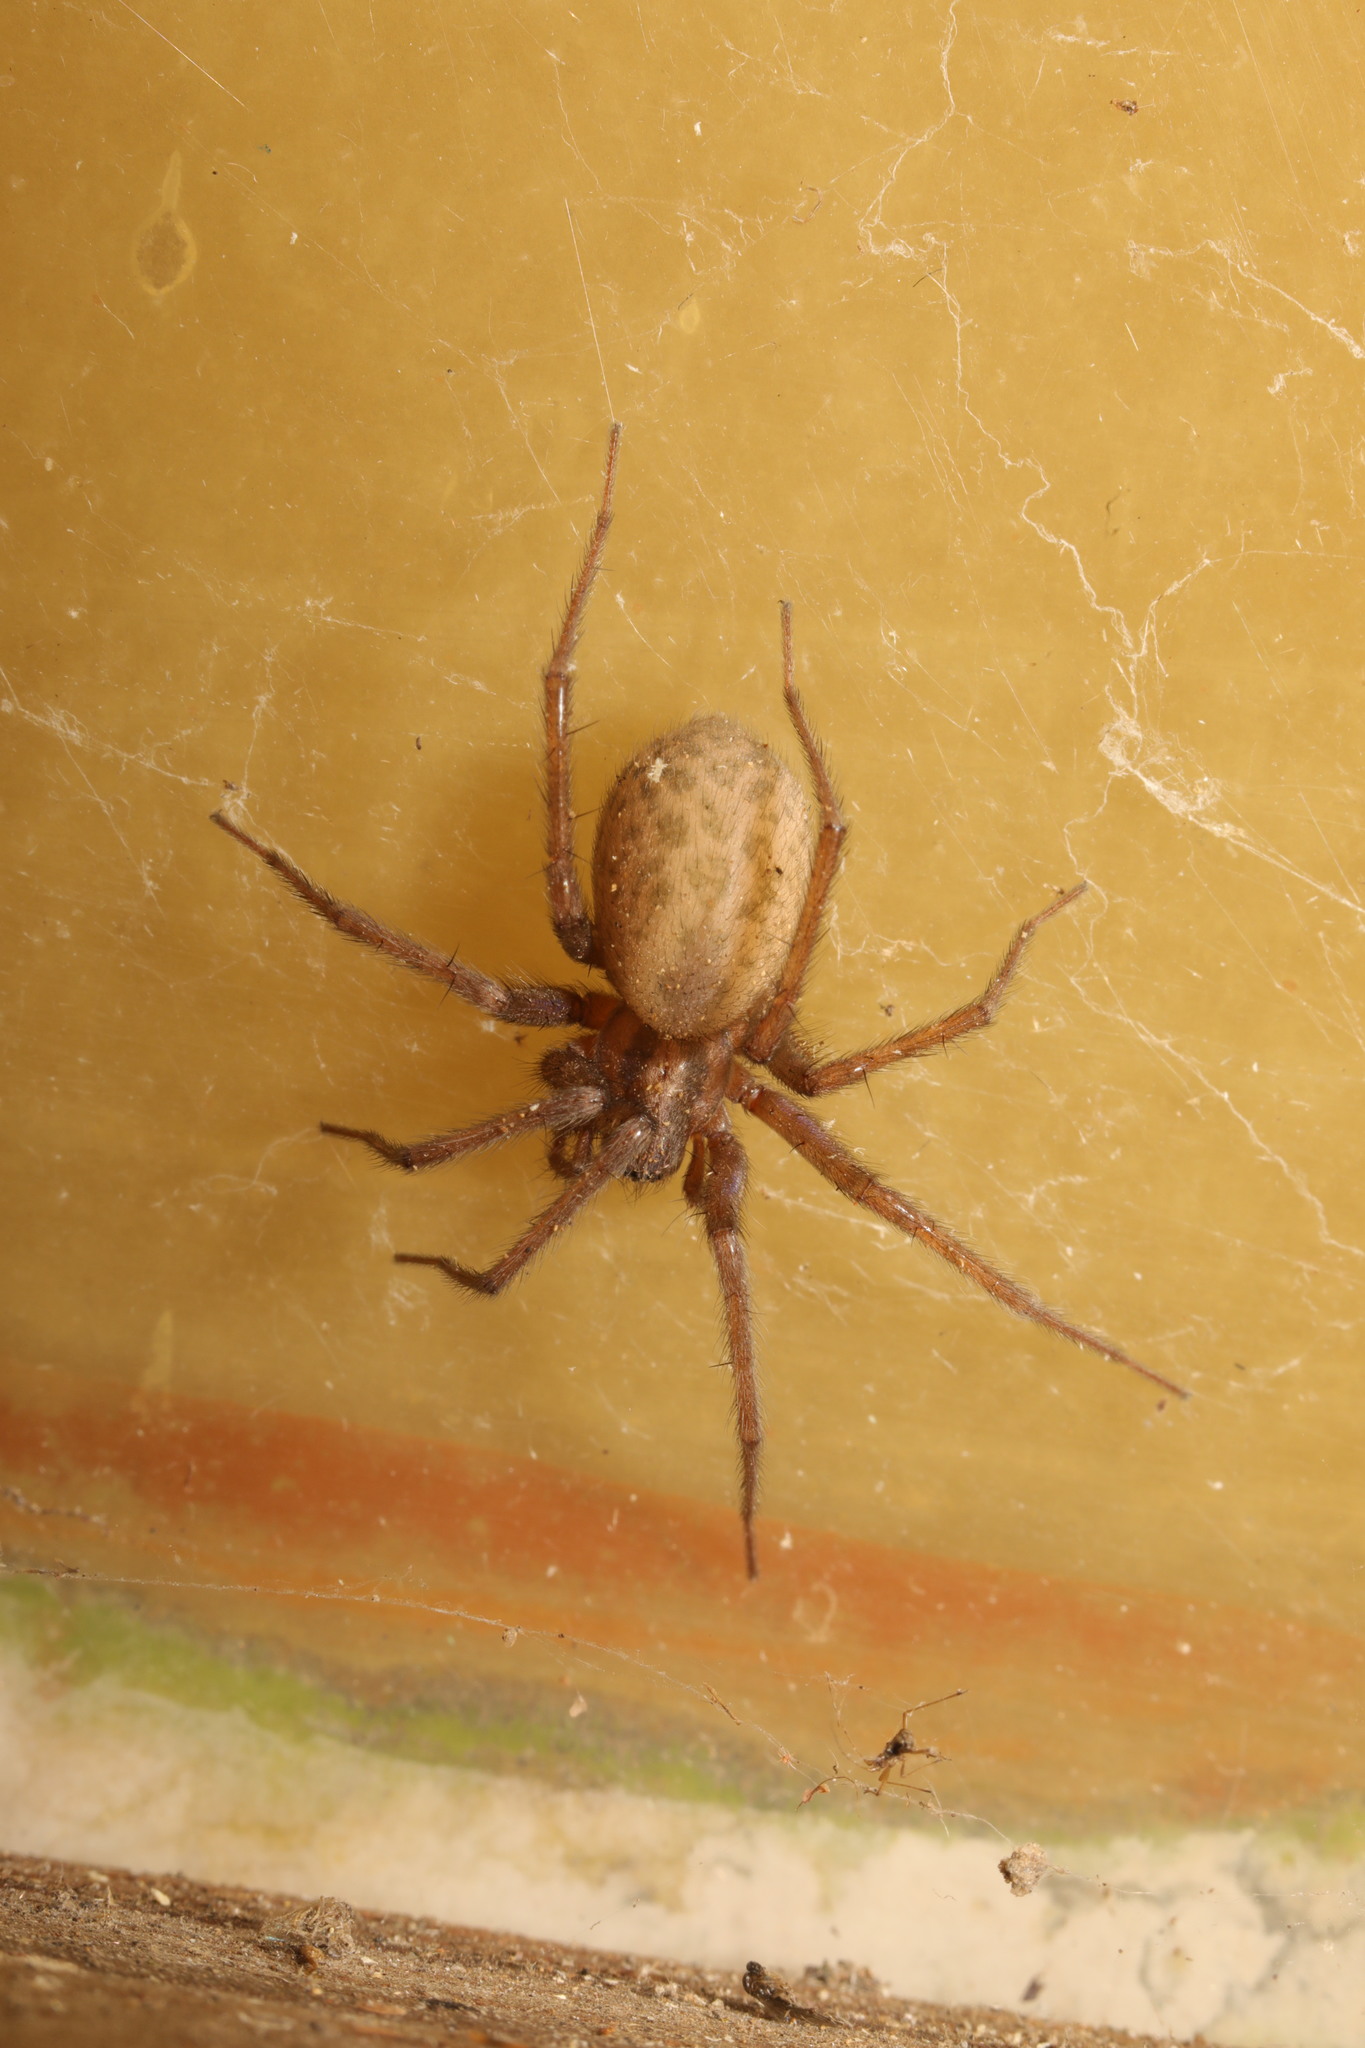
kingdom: Animalia
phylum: Arthropoda
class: Arachnida
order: Araneae
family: Agelenidae
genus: Tegenaria
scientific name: Tegenaria domestica
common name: Barn funnel weaver
